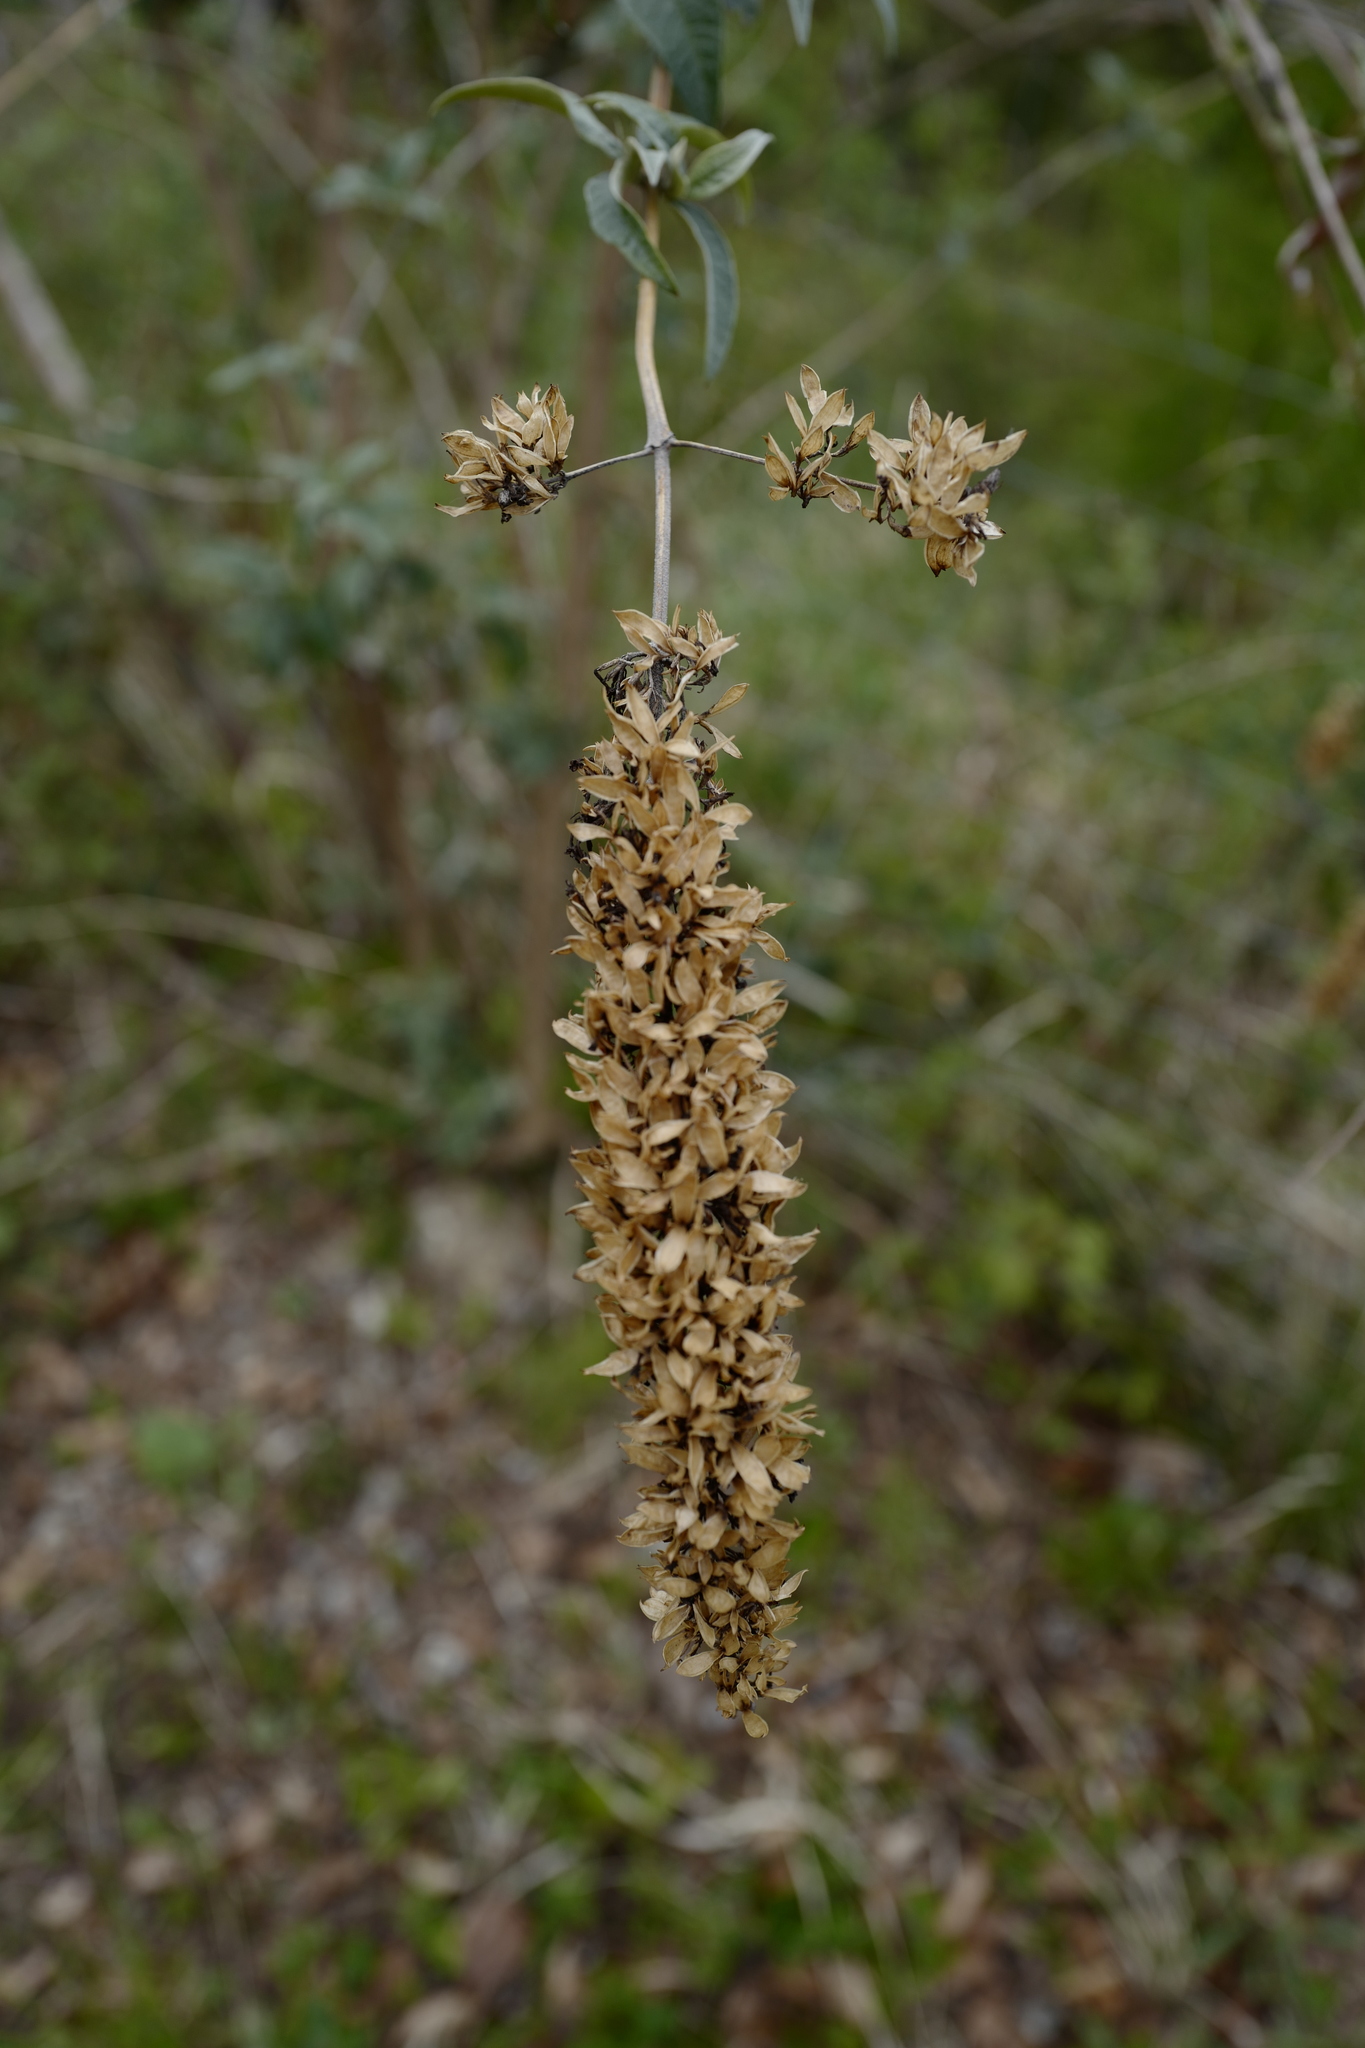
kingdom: Plantae
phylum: Tracheophyta
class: Magnoliopsida
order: Lamiales
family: Scrophulariaceae
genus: Buddleja
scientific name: Buddleja davidii
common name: Butterfly-bush
